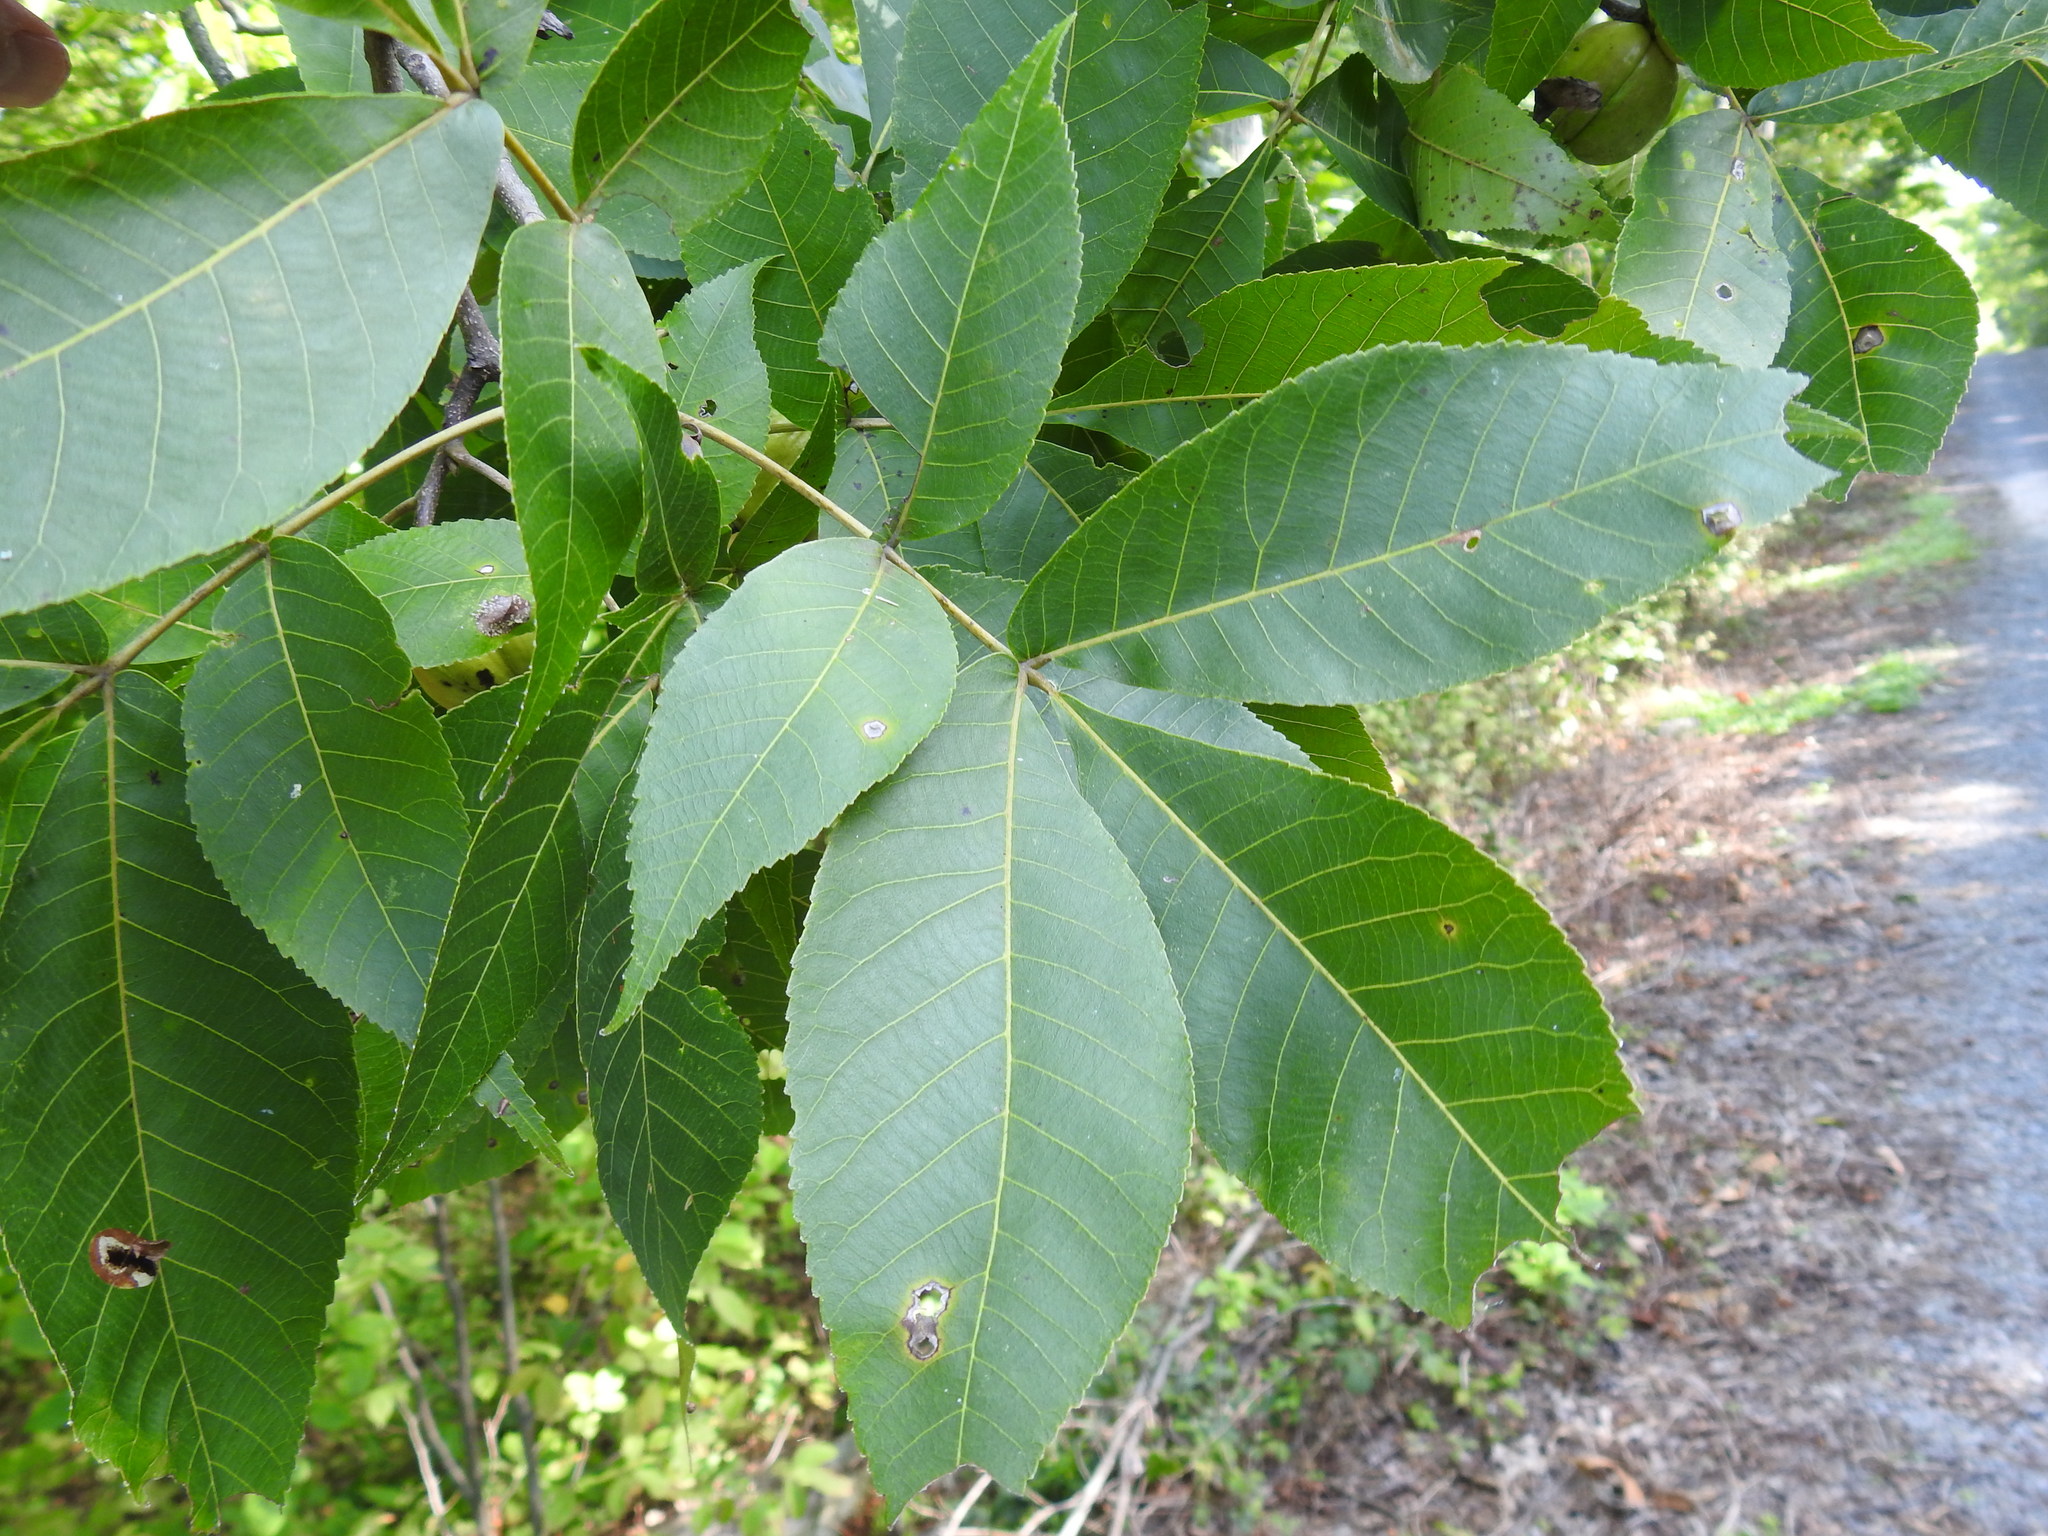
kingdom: Plantae
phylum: Tracheophyta
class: Magnoliopsida
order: Fagales
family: Juglandaceae
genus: Carya
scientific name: Carya ovata
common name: Shagbark hickory
